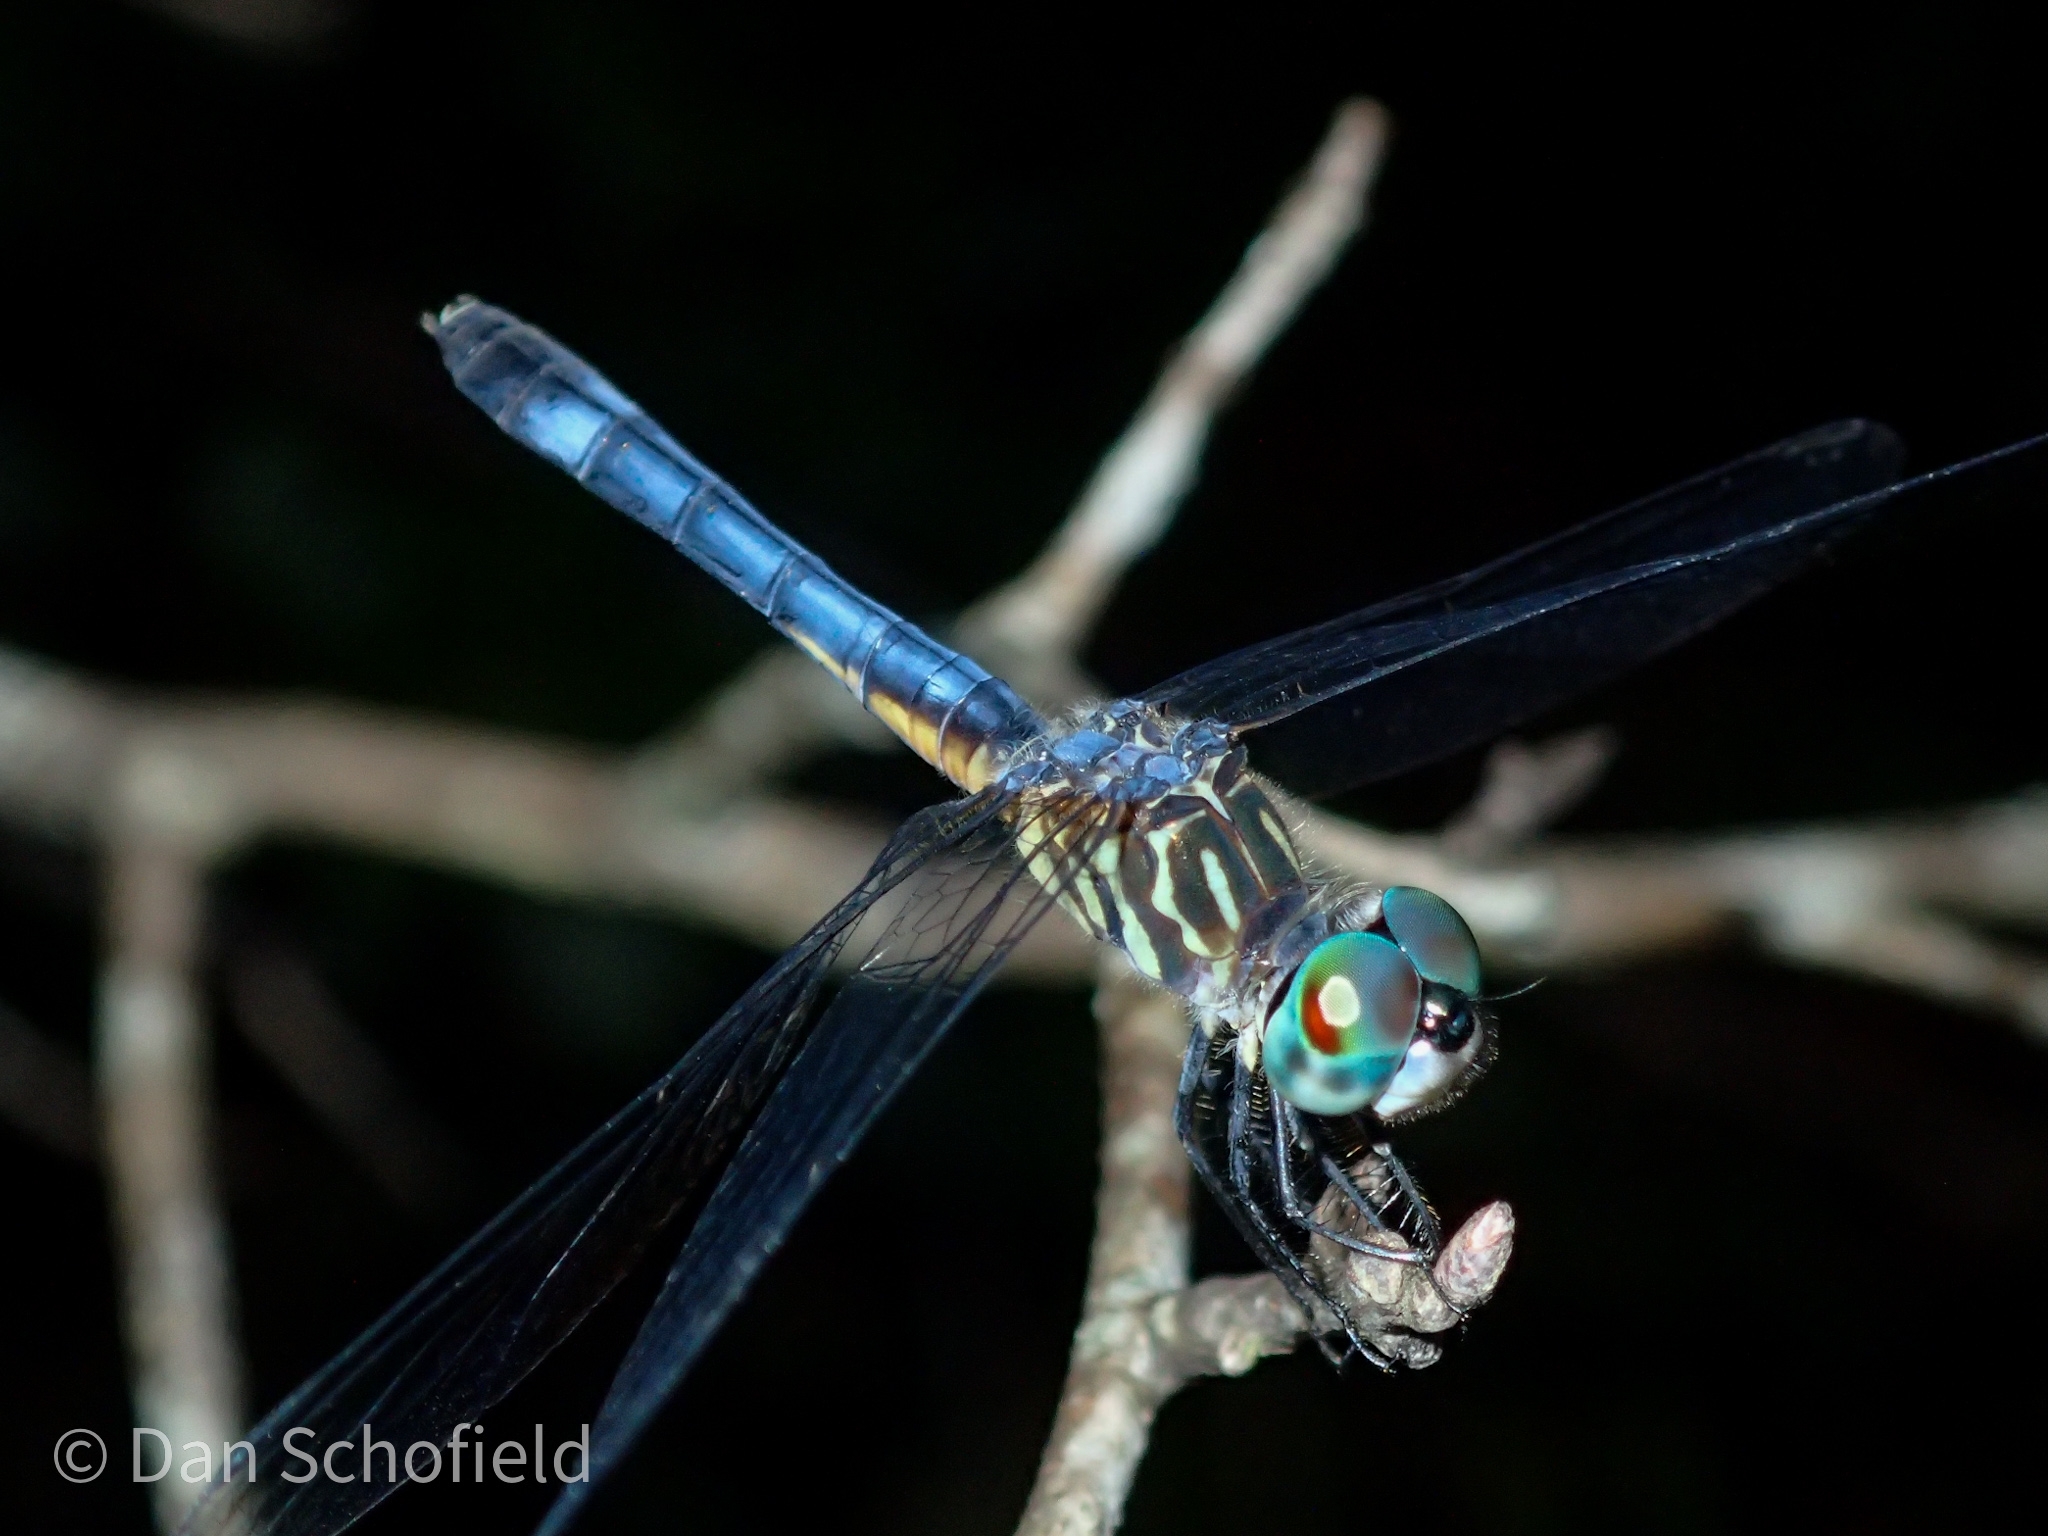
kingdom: Animalia
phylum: Arthropoda
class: Insecta
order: Odonata
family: Libellulidae
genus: Pachydiplax
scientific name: Pachydiplax longipennis
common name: Blue dasher
